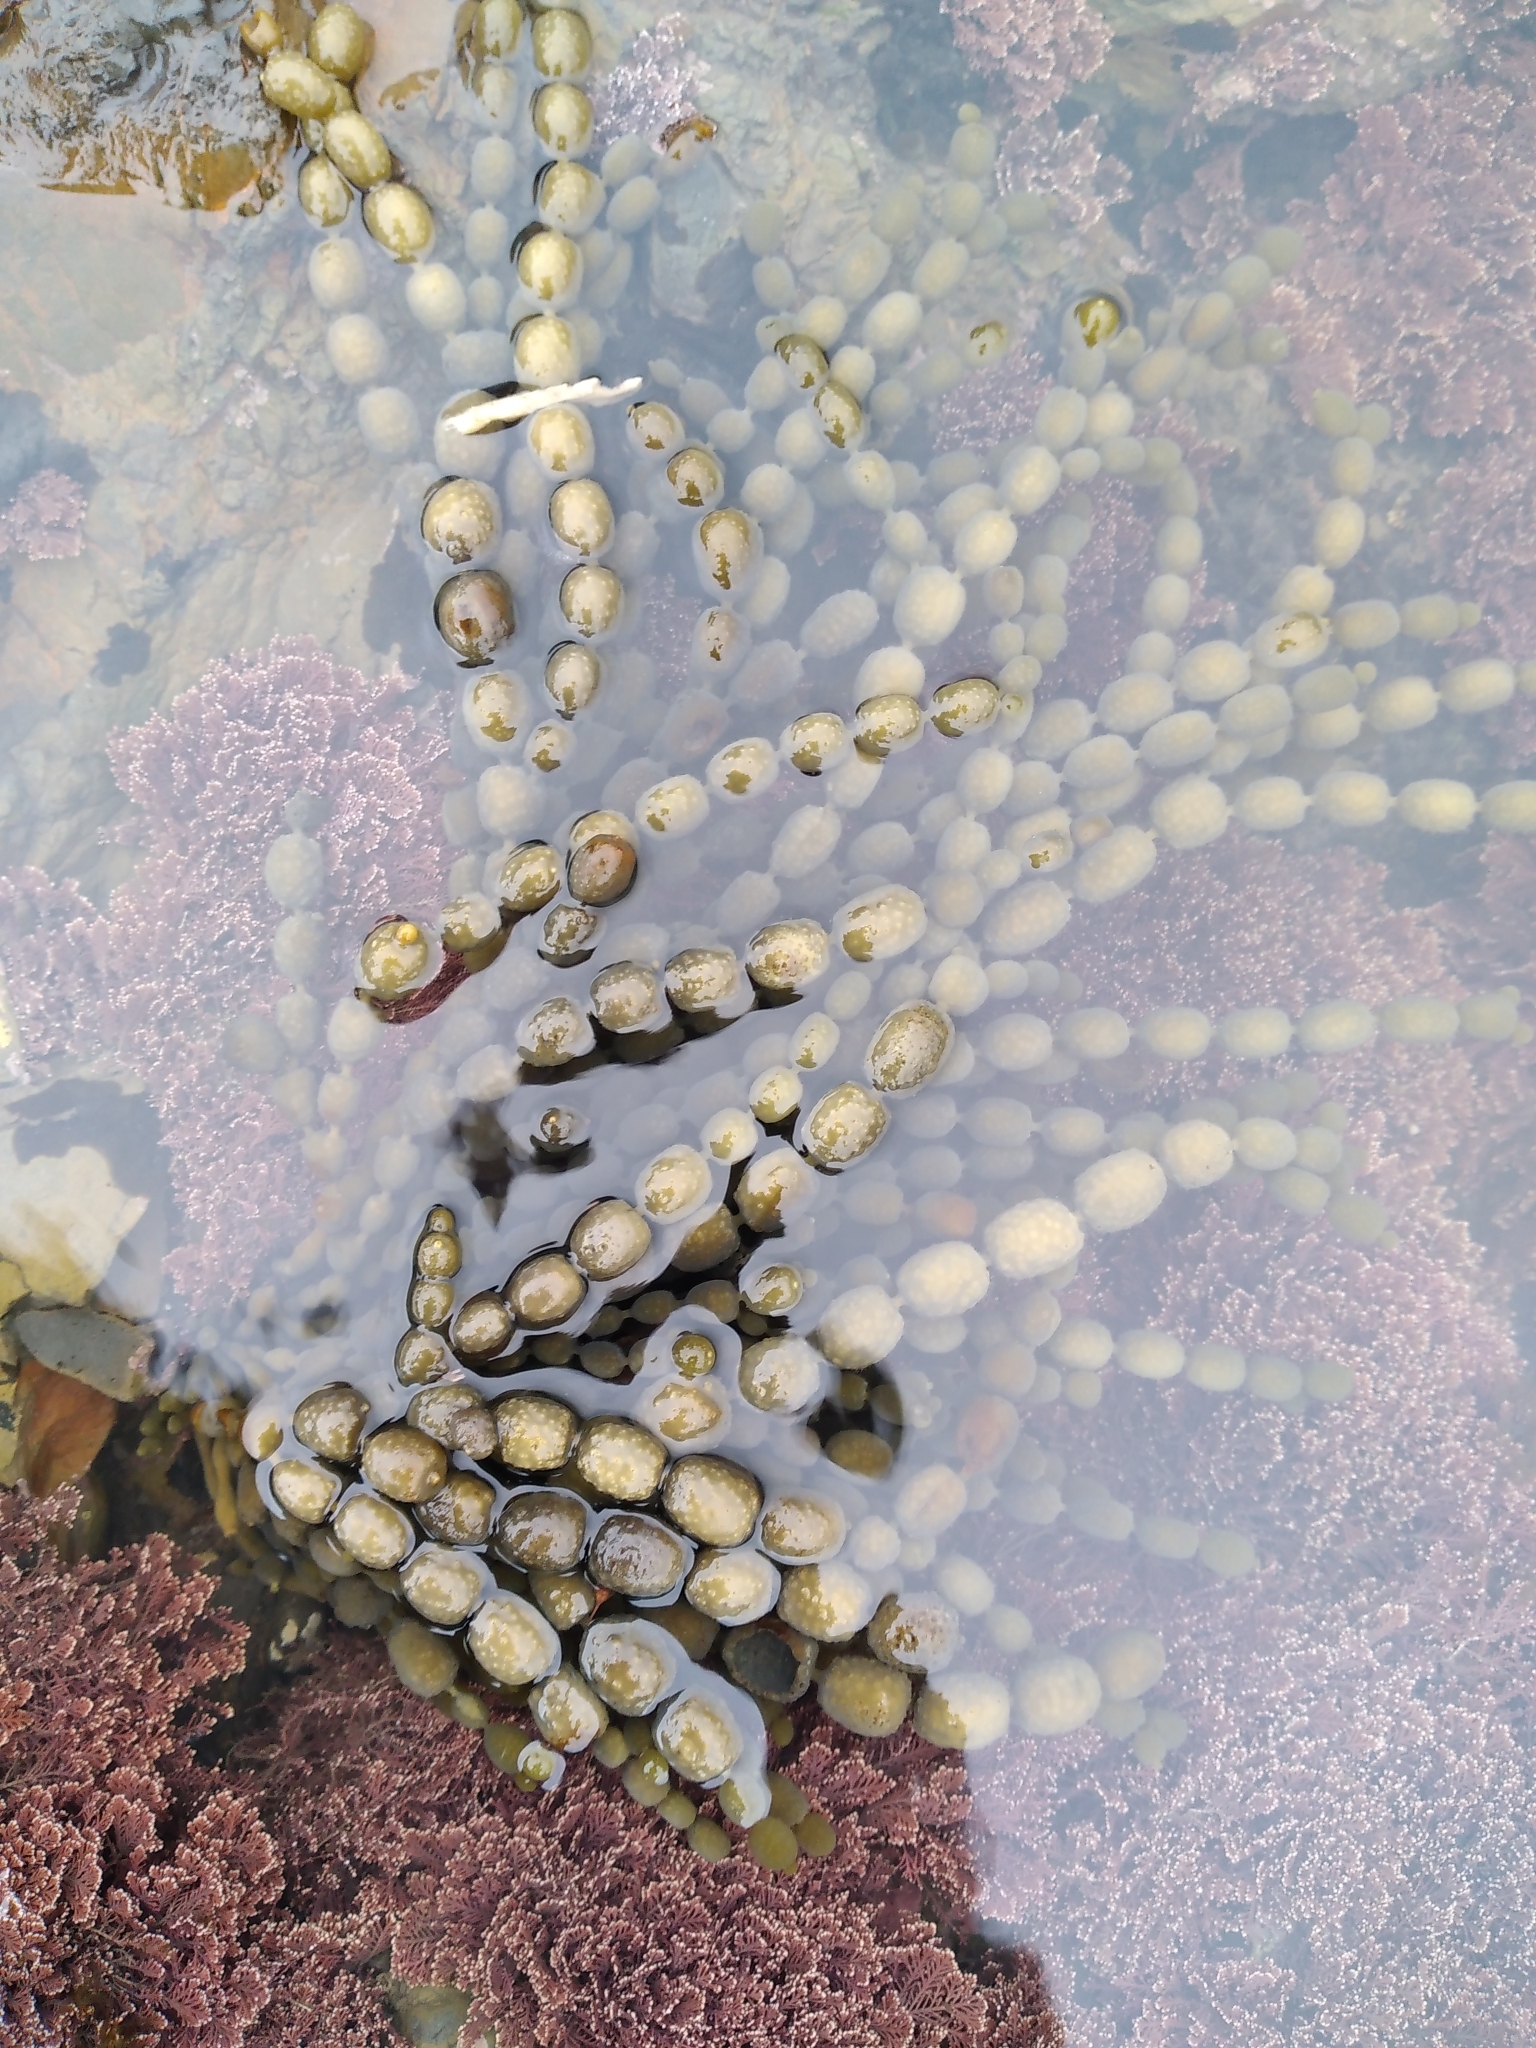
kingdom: Chromista
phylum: Ochrophyta
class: Phaeophyceae
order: Fucales
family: Hormosiraceae
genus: Hormosira
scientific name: Hormosira banksii
